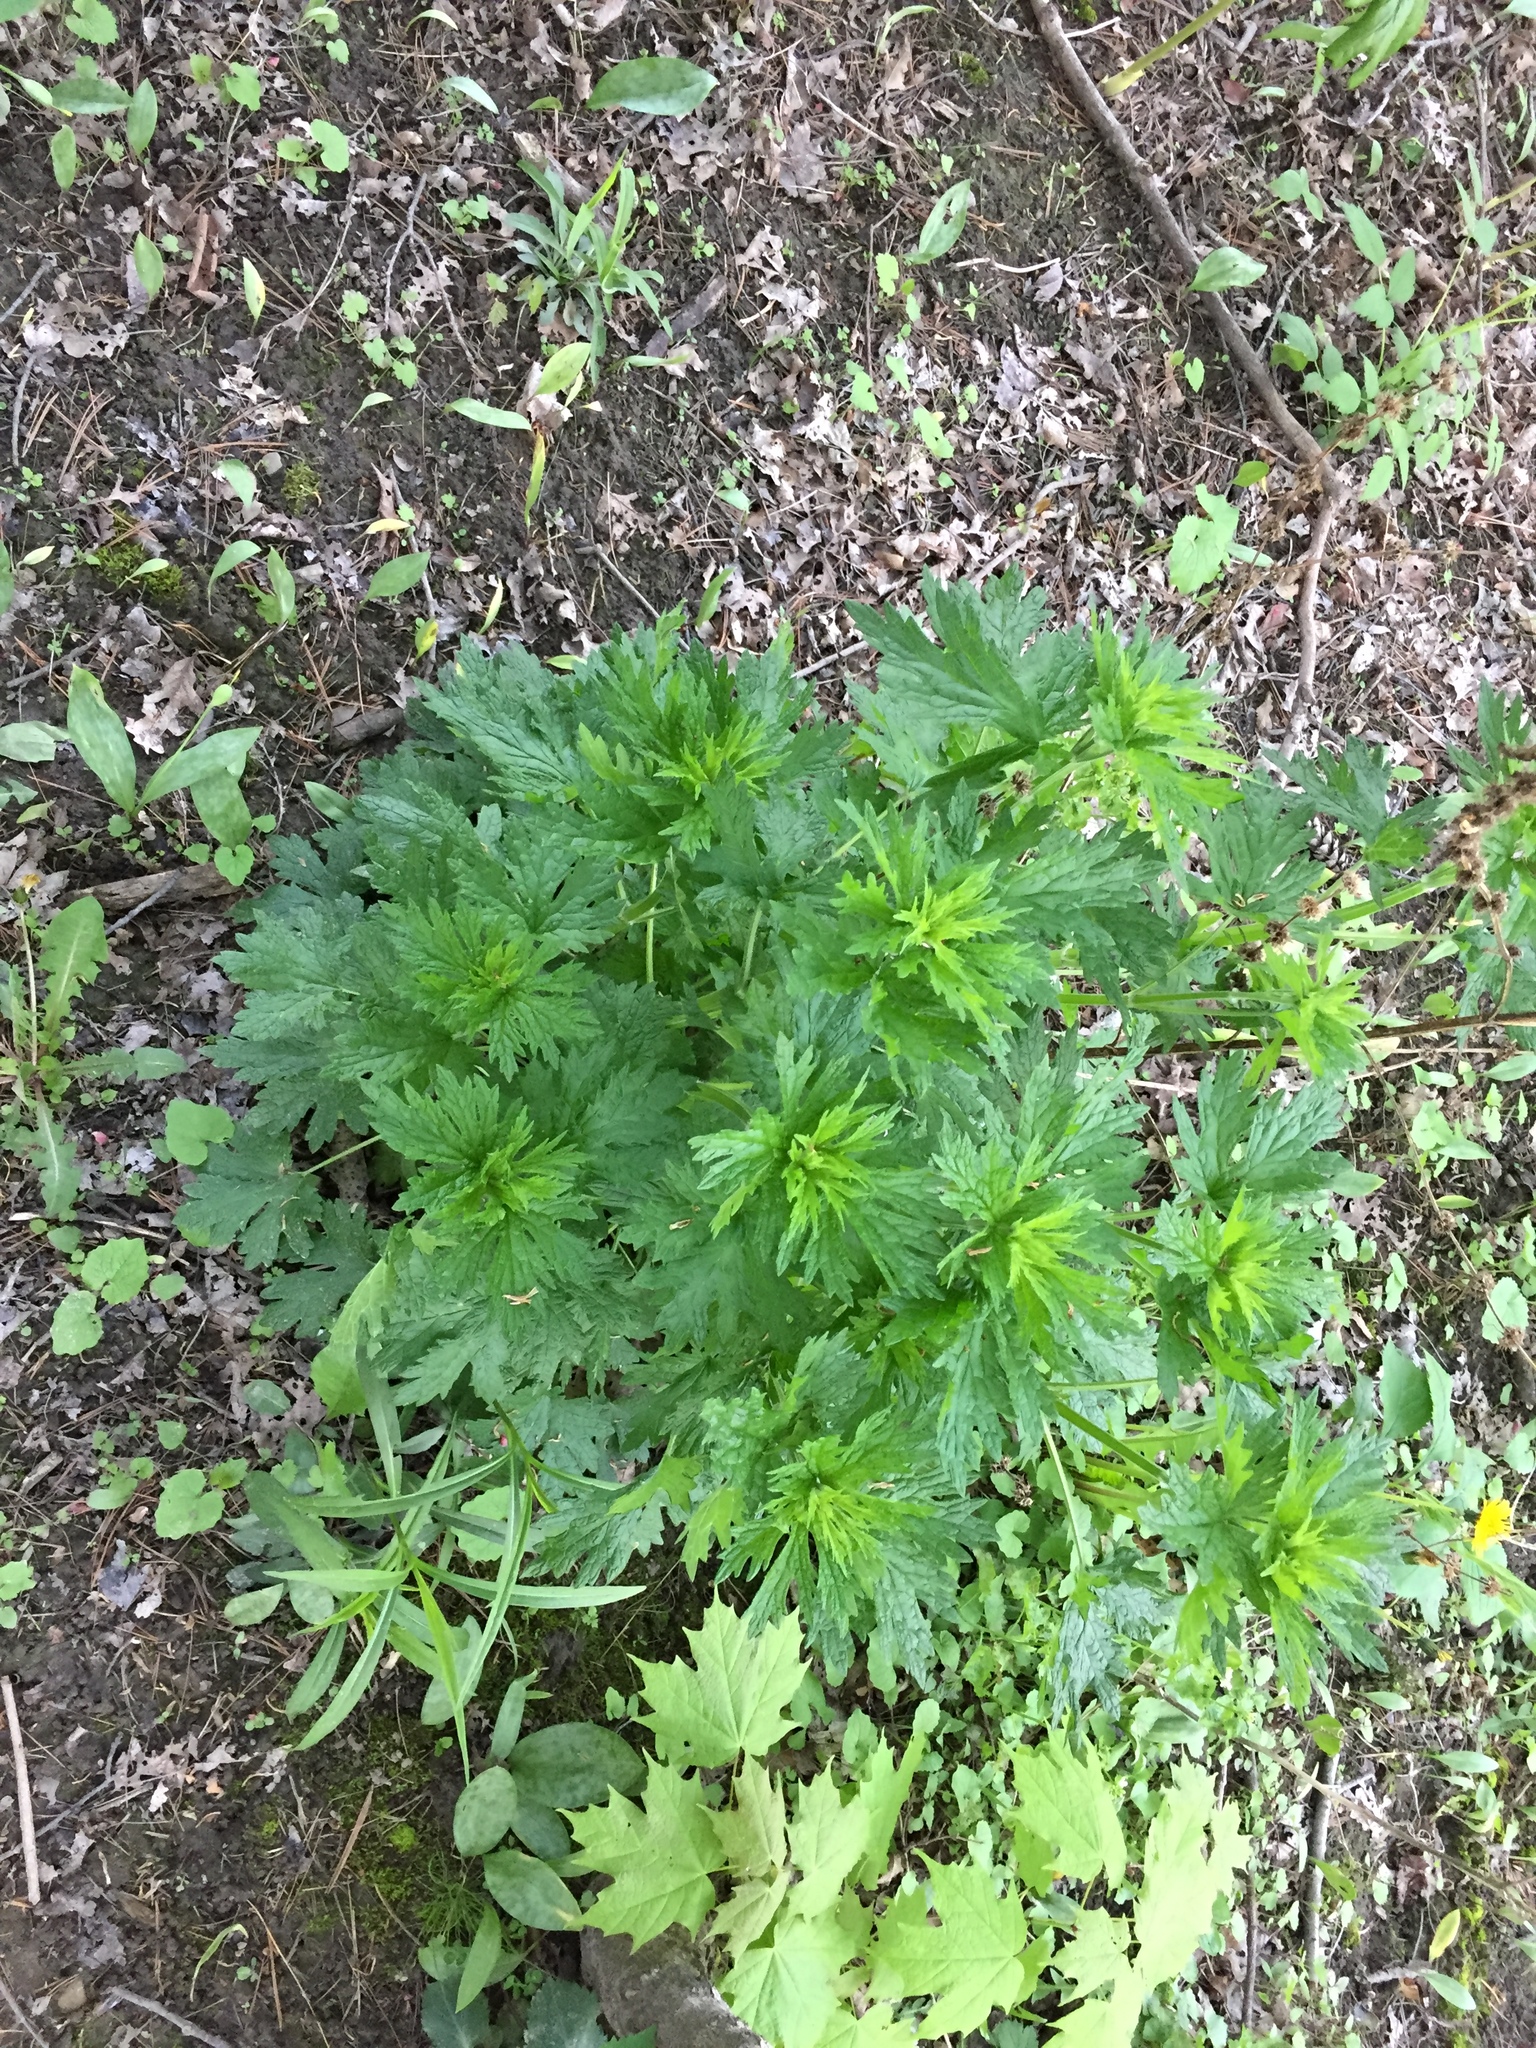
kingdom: Plantae
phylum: Tracheophyta
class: Magnoliopsida
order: Lamiales
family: Lamiaceae
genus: Leonurus
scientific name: Leonurus cardiaca
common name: Motherwort
